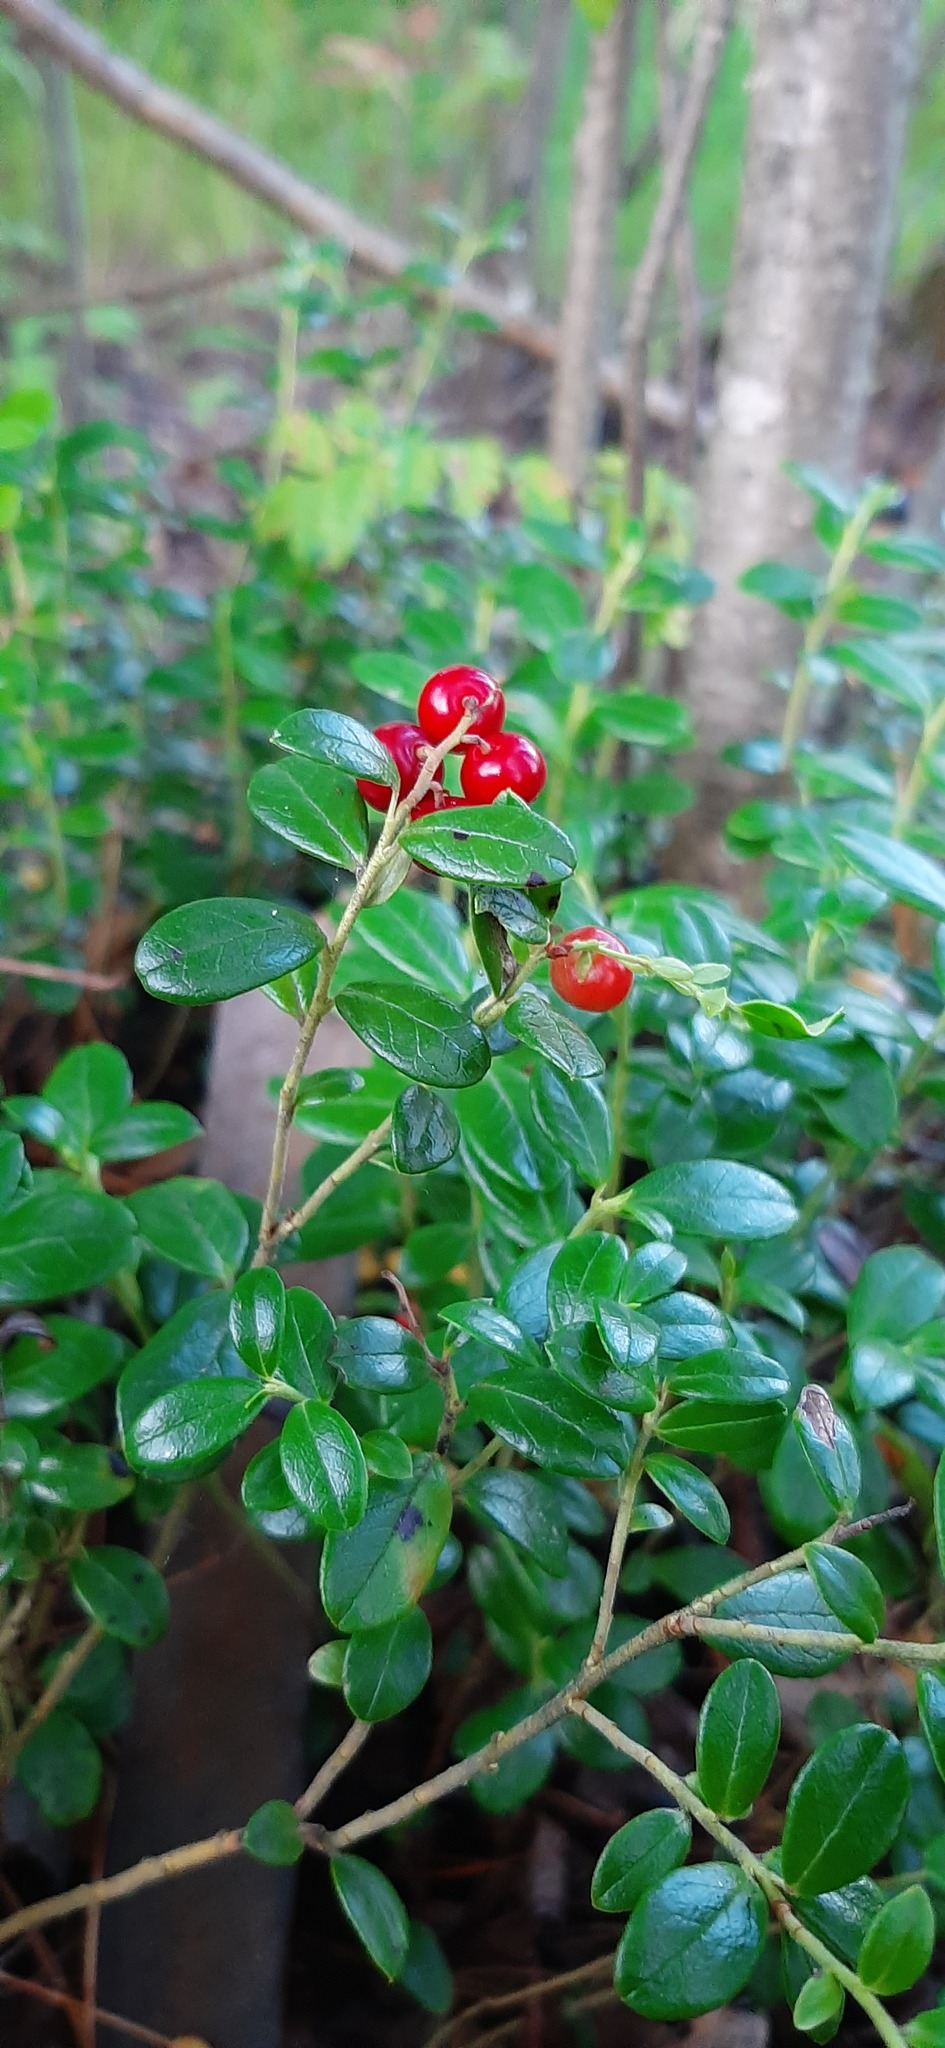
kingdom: Plantae
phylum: Tracheophyta
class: Magnoliopsida
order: Ericales
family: Ericaceae
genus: Vaccinium
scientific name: Vaccinium vitis-idaea
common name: Cowberry
